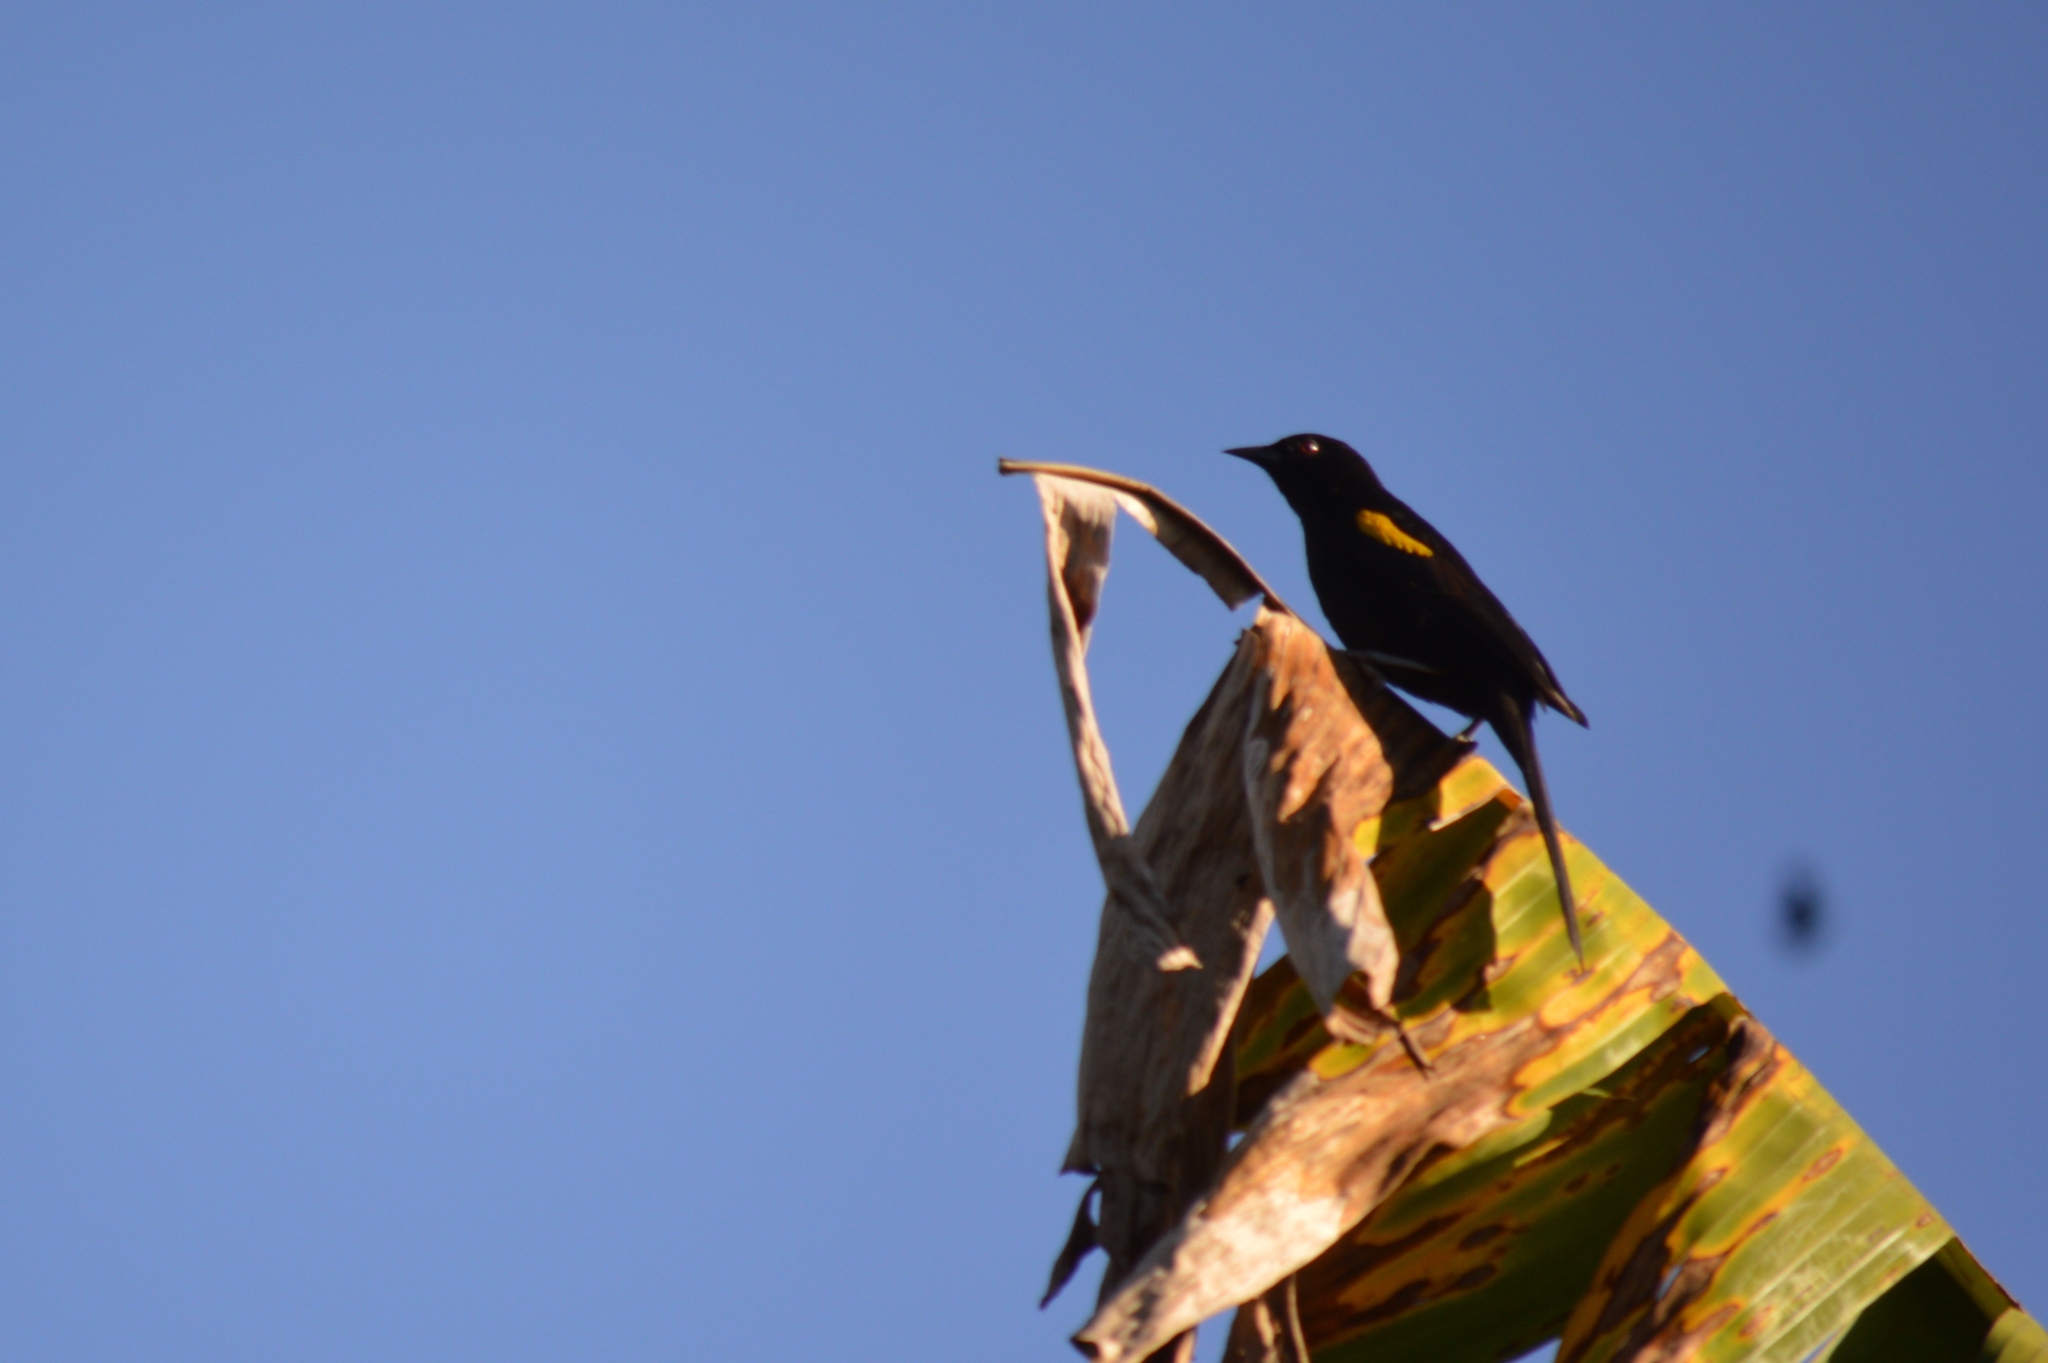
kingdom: Animalia
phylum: Chordata
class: Aves
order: Passeriformes
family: Icteridae
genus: Icterus
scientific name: Icterus cayanensis
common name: Epaulet oriole
